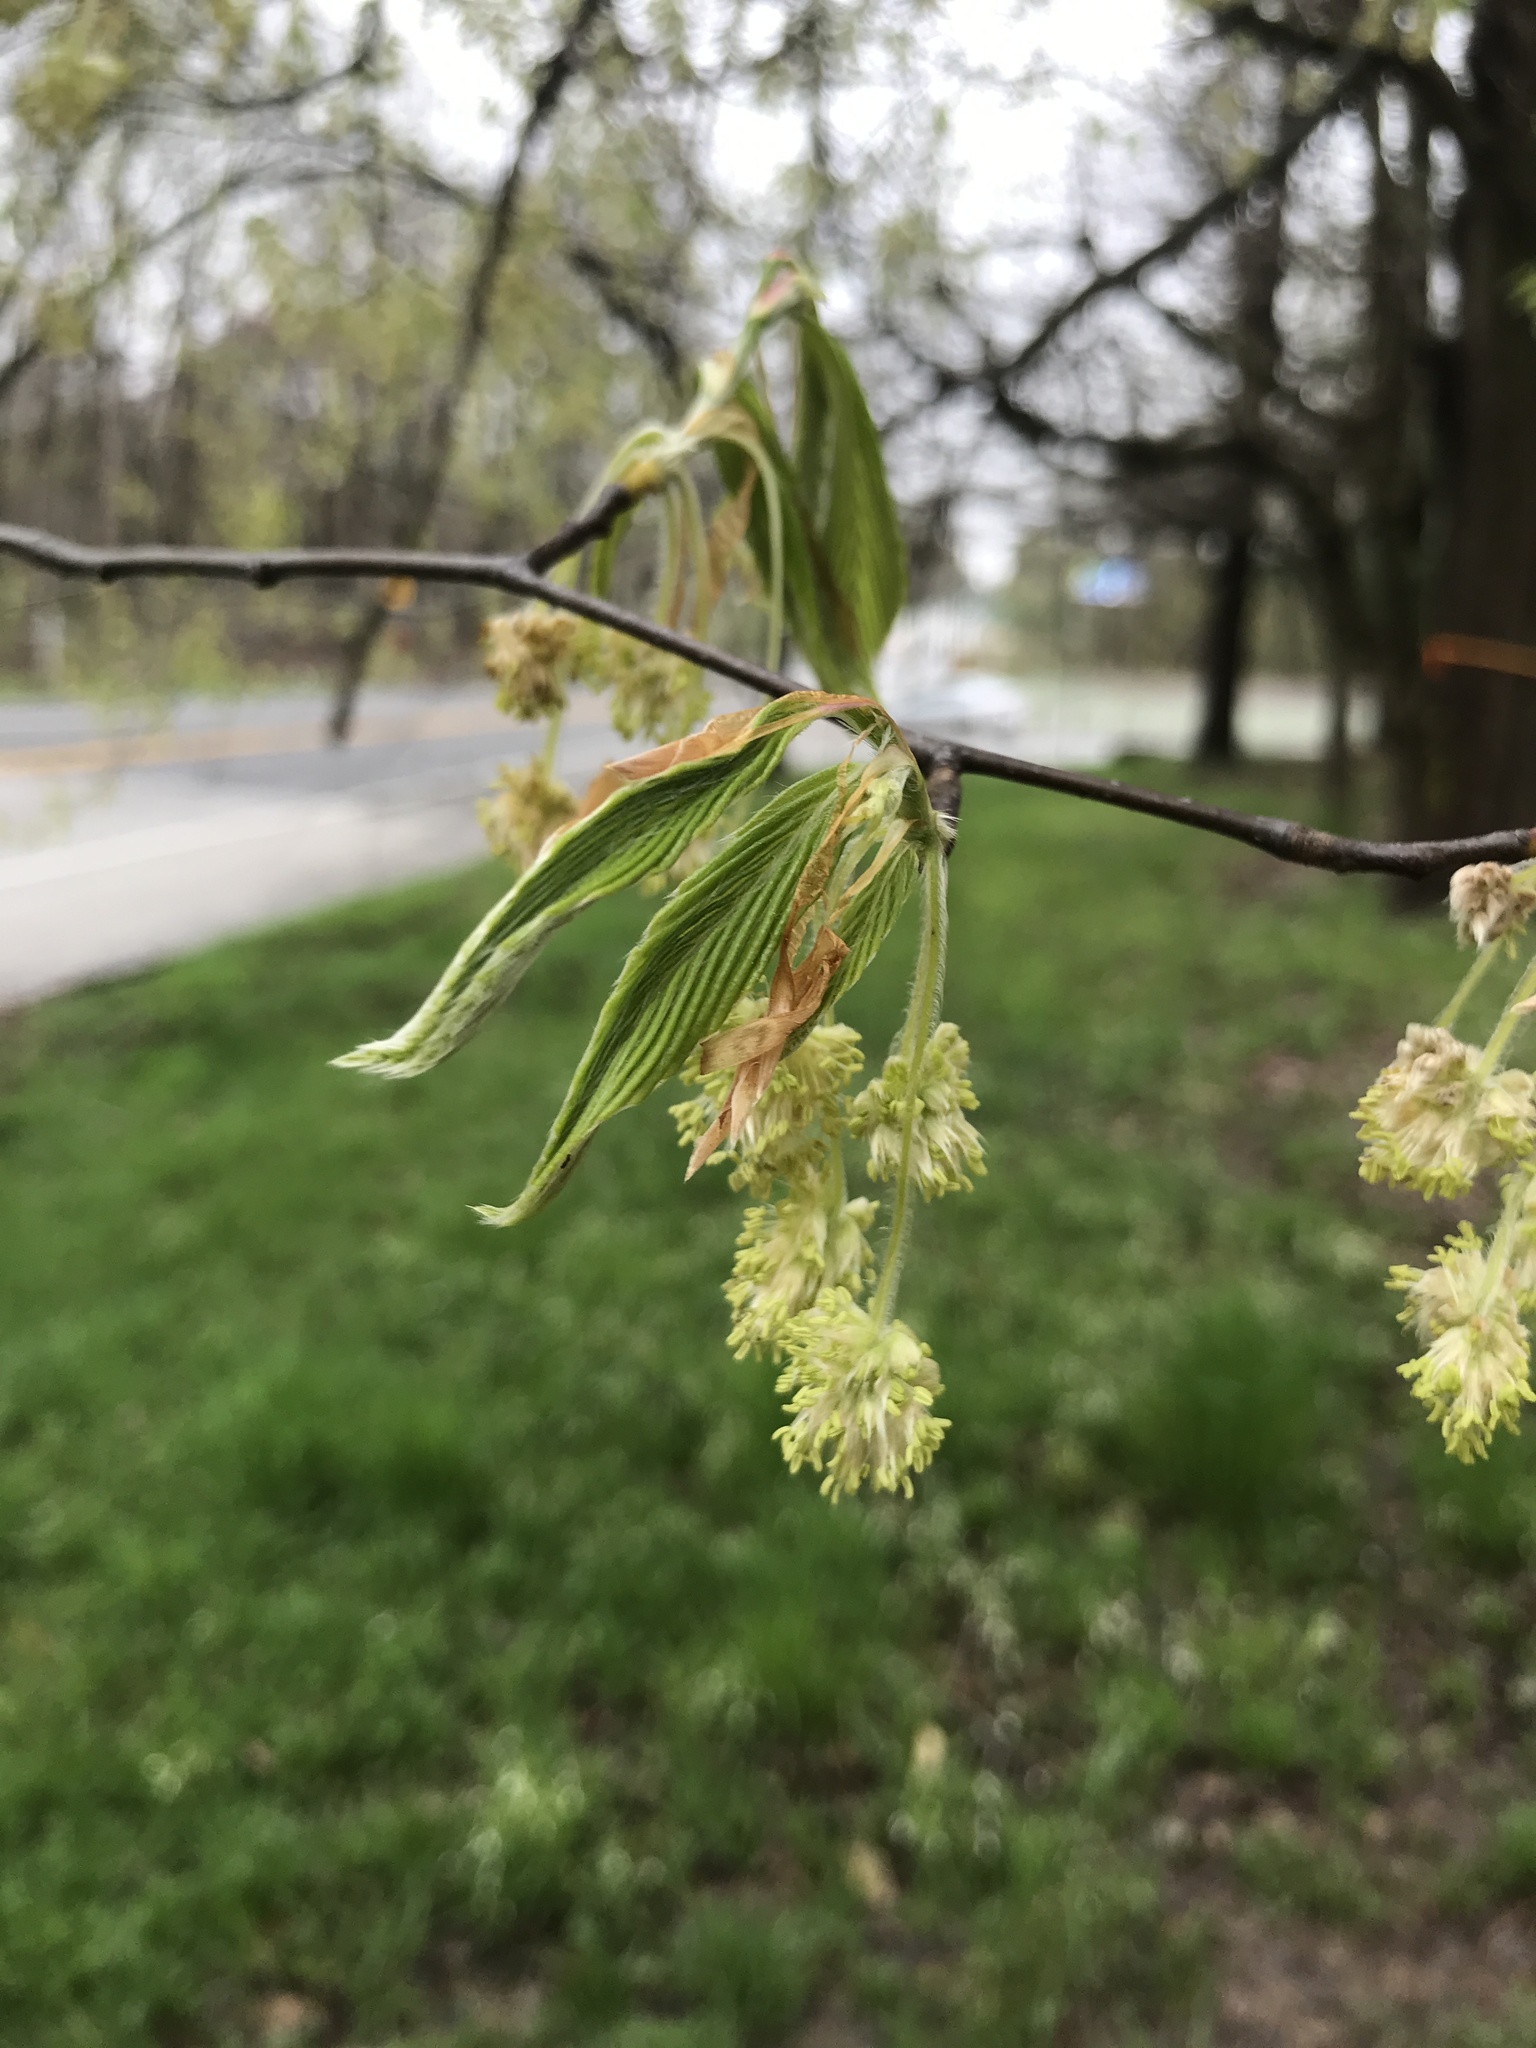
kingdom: Plantae
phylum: Tracheophyta
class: Magnoliopsida
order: Fagales
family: Fagaceae
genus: Fagus
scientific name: Fagus grandifolia
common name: American beech
